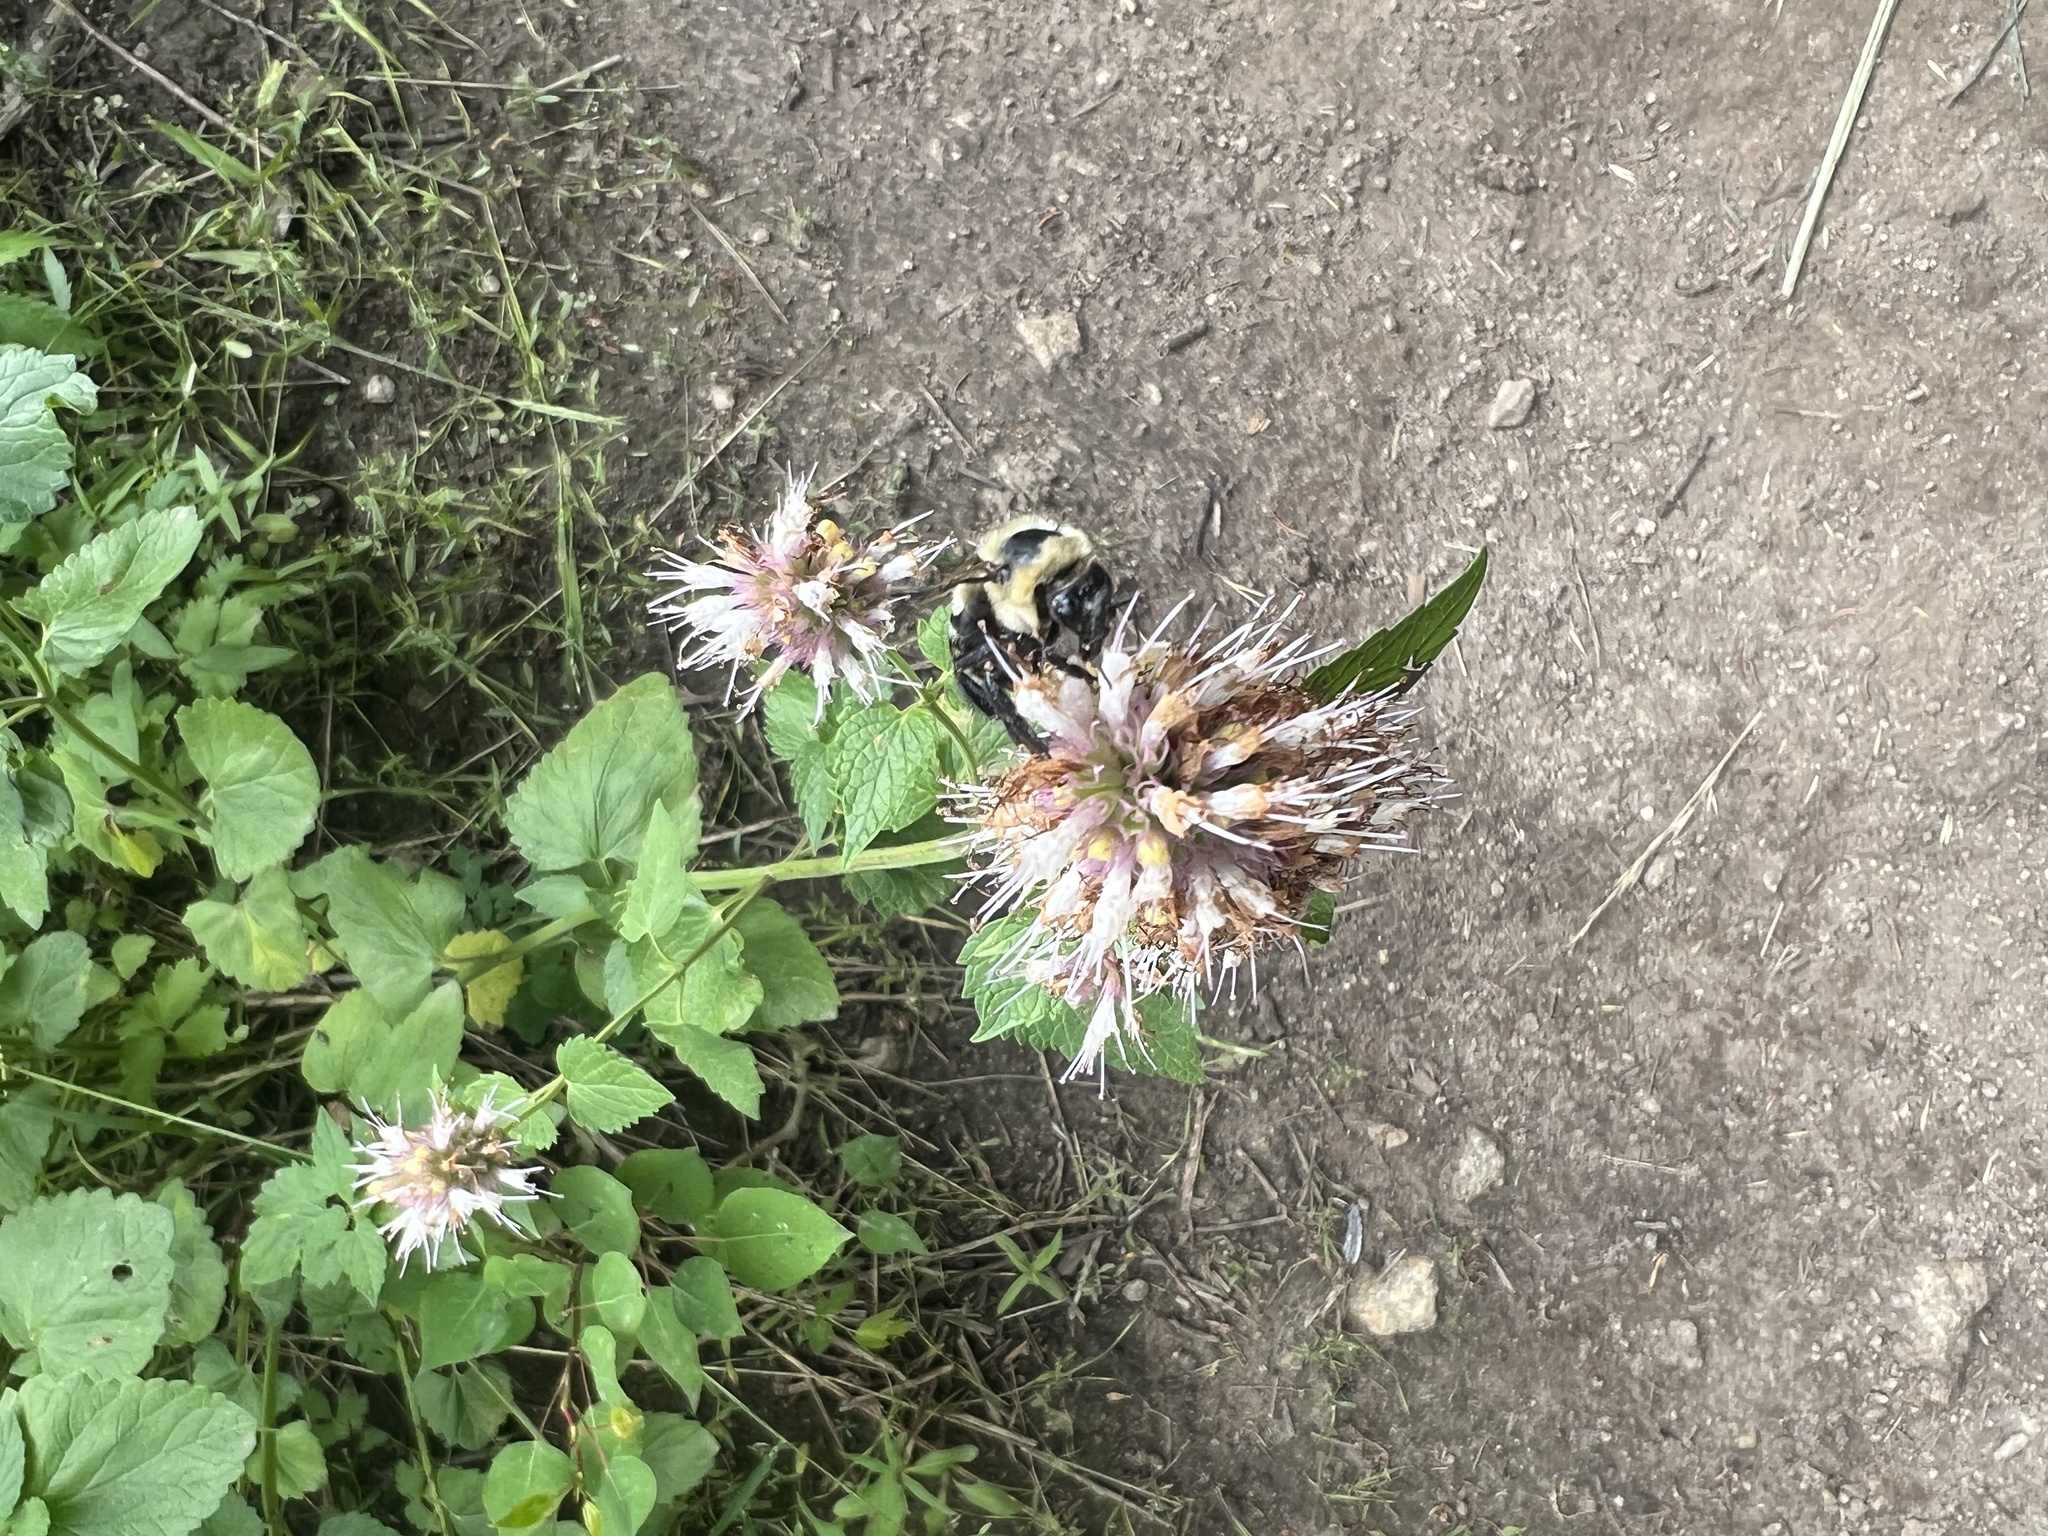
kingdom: Plantae
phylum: Tracheophyta
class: Magnoliopsida
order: Lamiales
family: Lamiaceae
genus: Agastache
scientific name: Agastache urticifolia
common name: Horsemint giant hyssop
